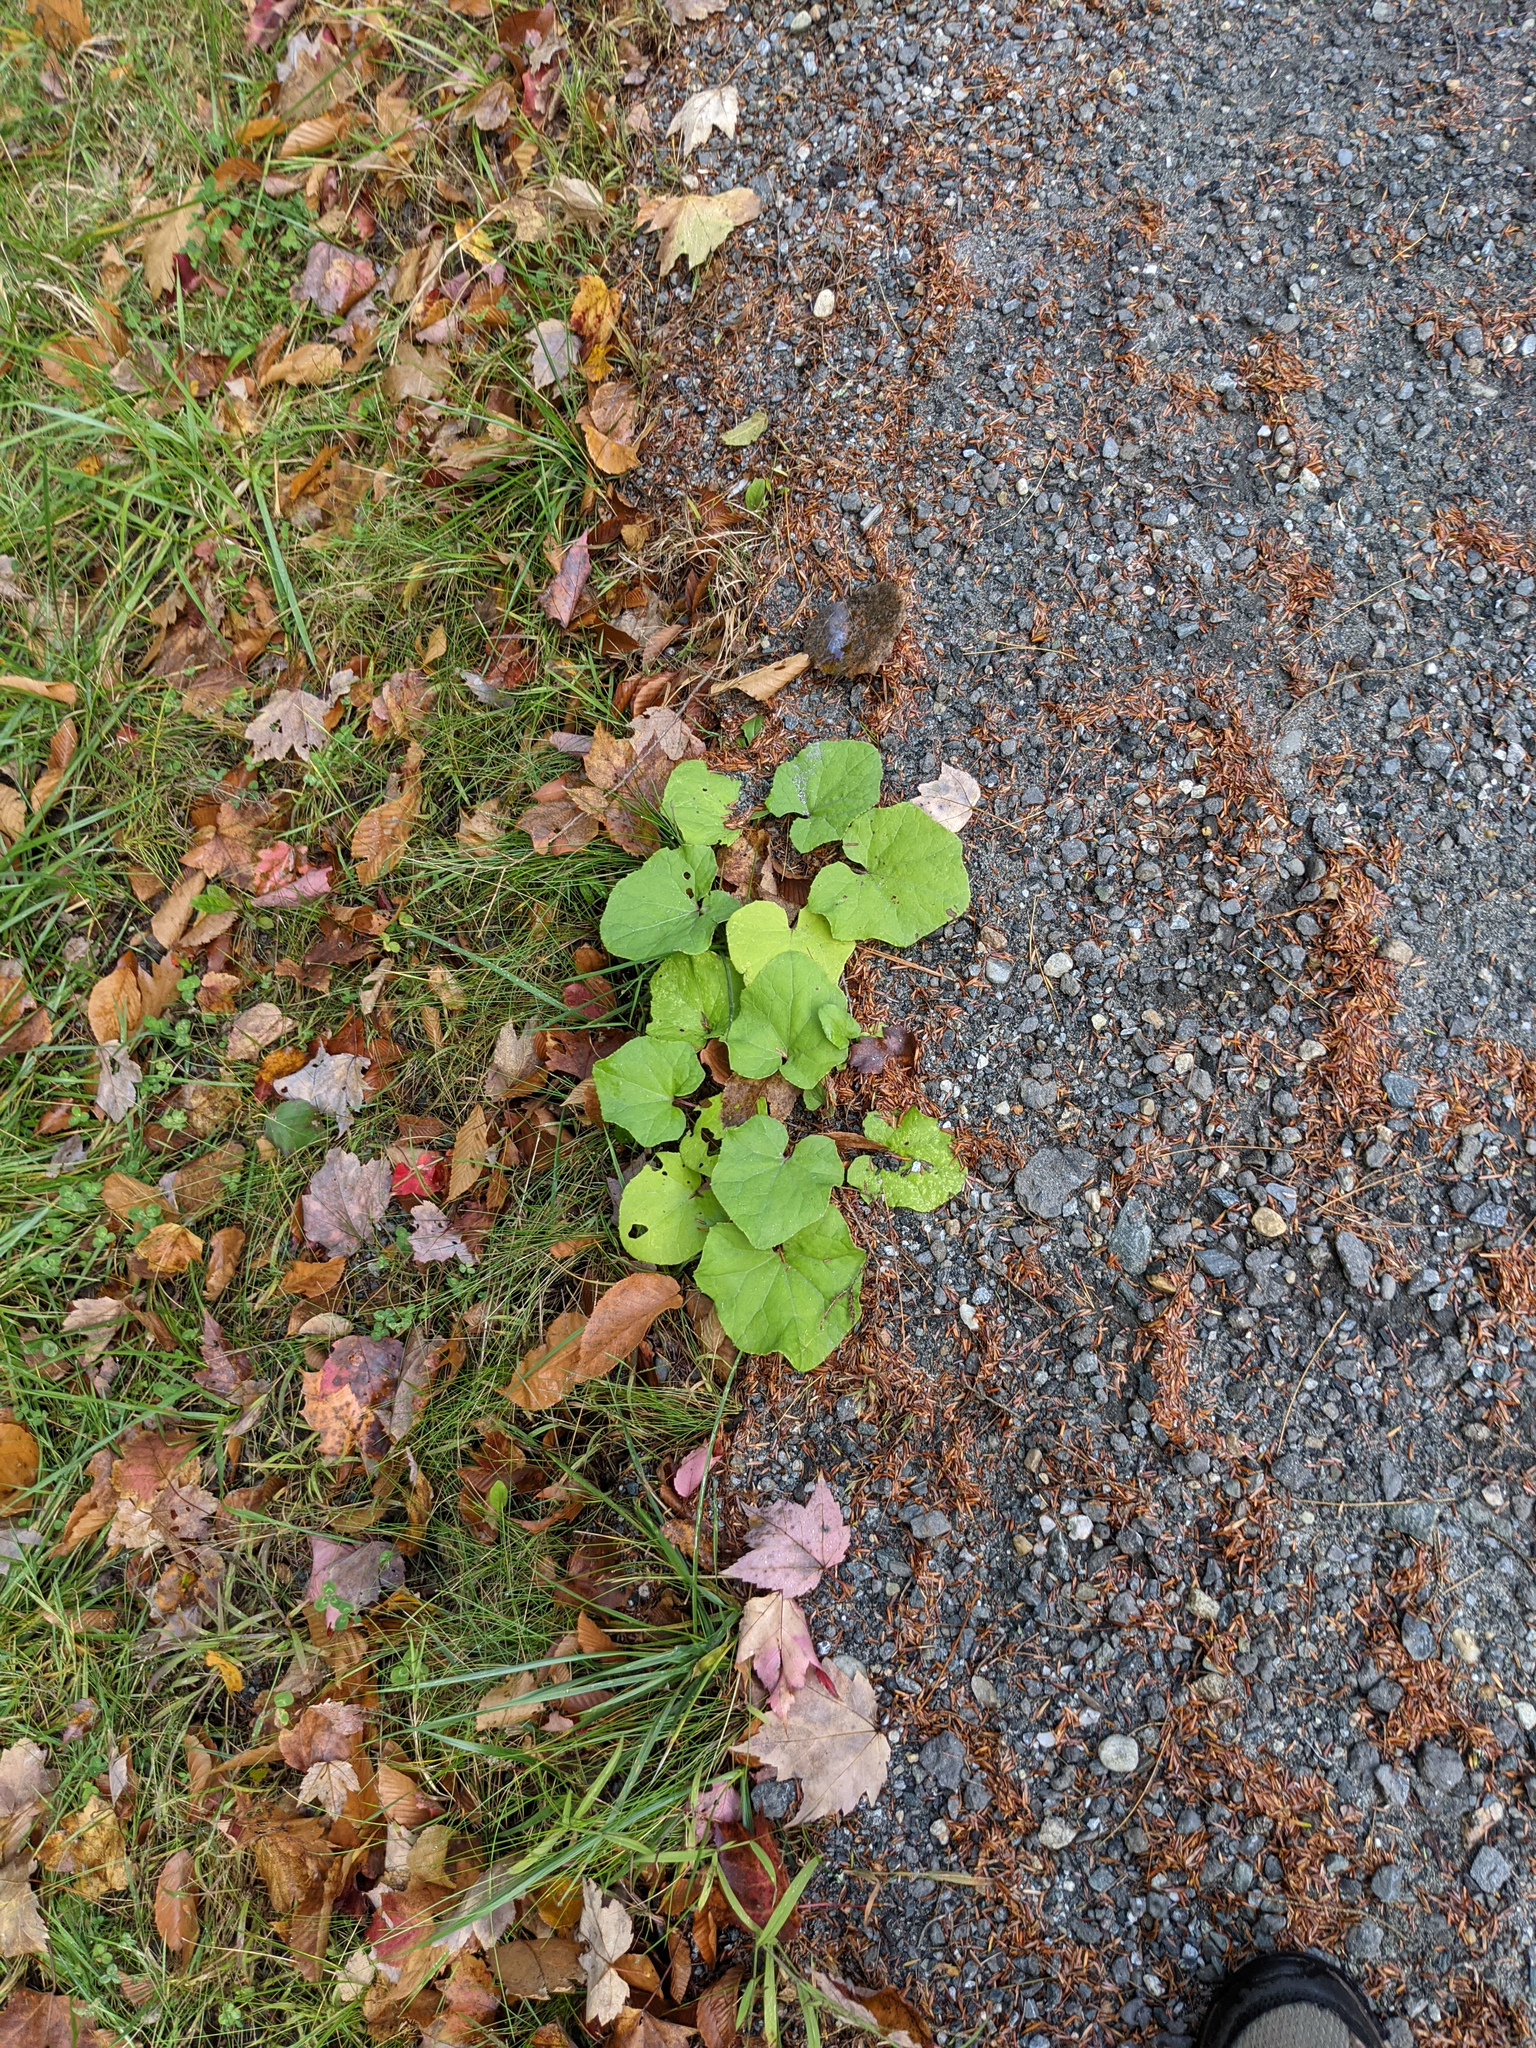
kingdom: Plantae
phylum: Tracheophyta
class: Magnoliopsida
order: Asterales
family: Asteraceae
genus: Tussilago
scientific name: Tussilago farfara
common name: Coltsfoot
